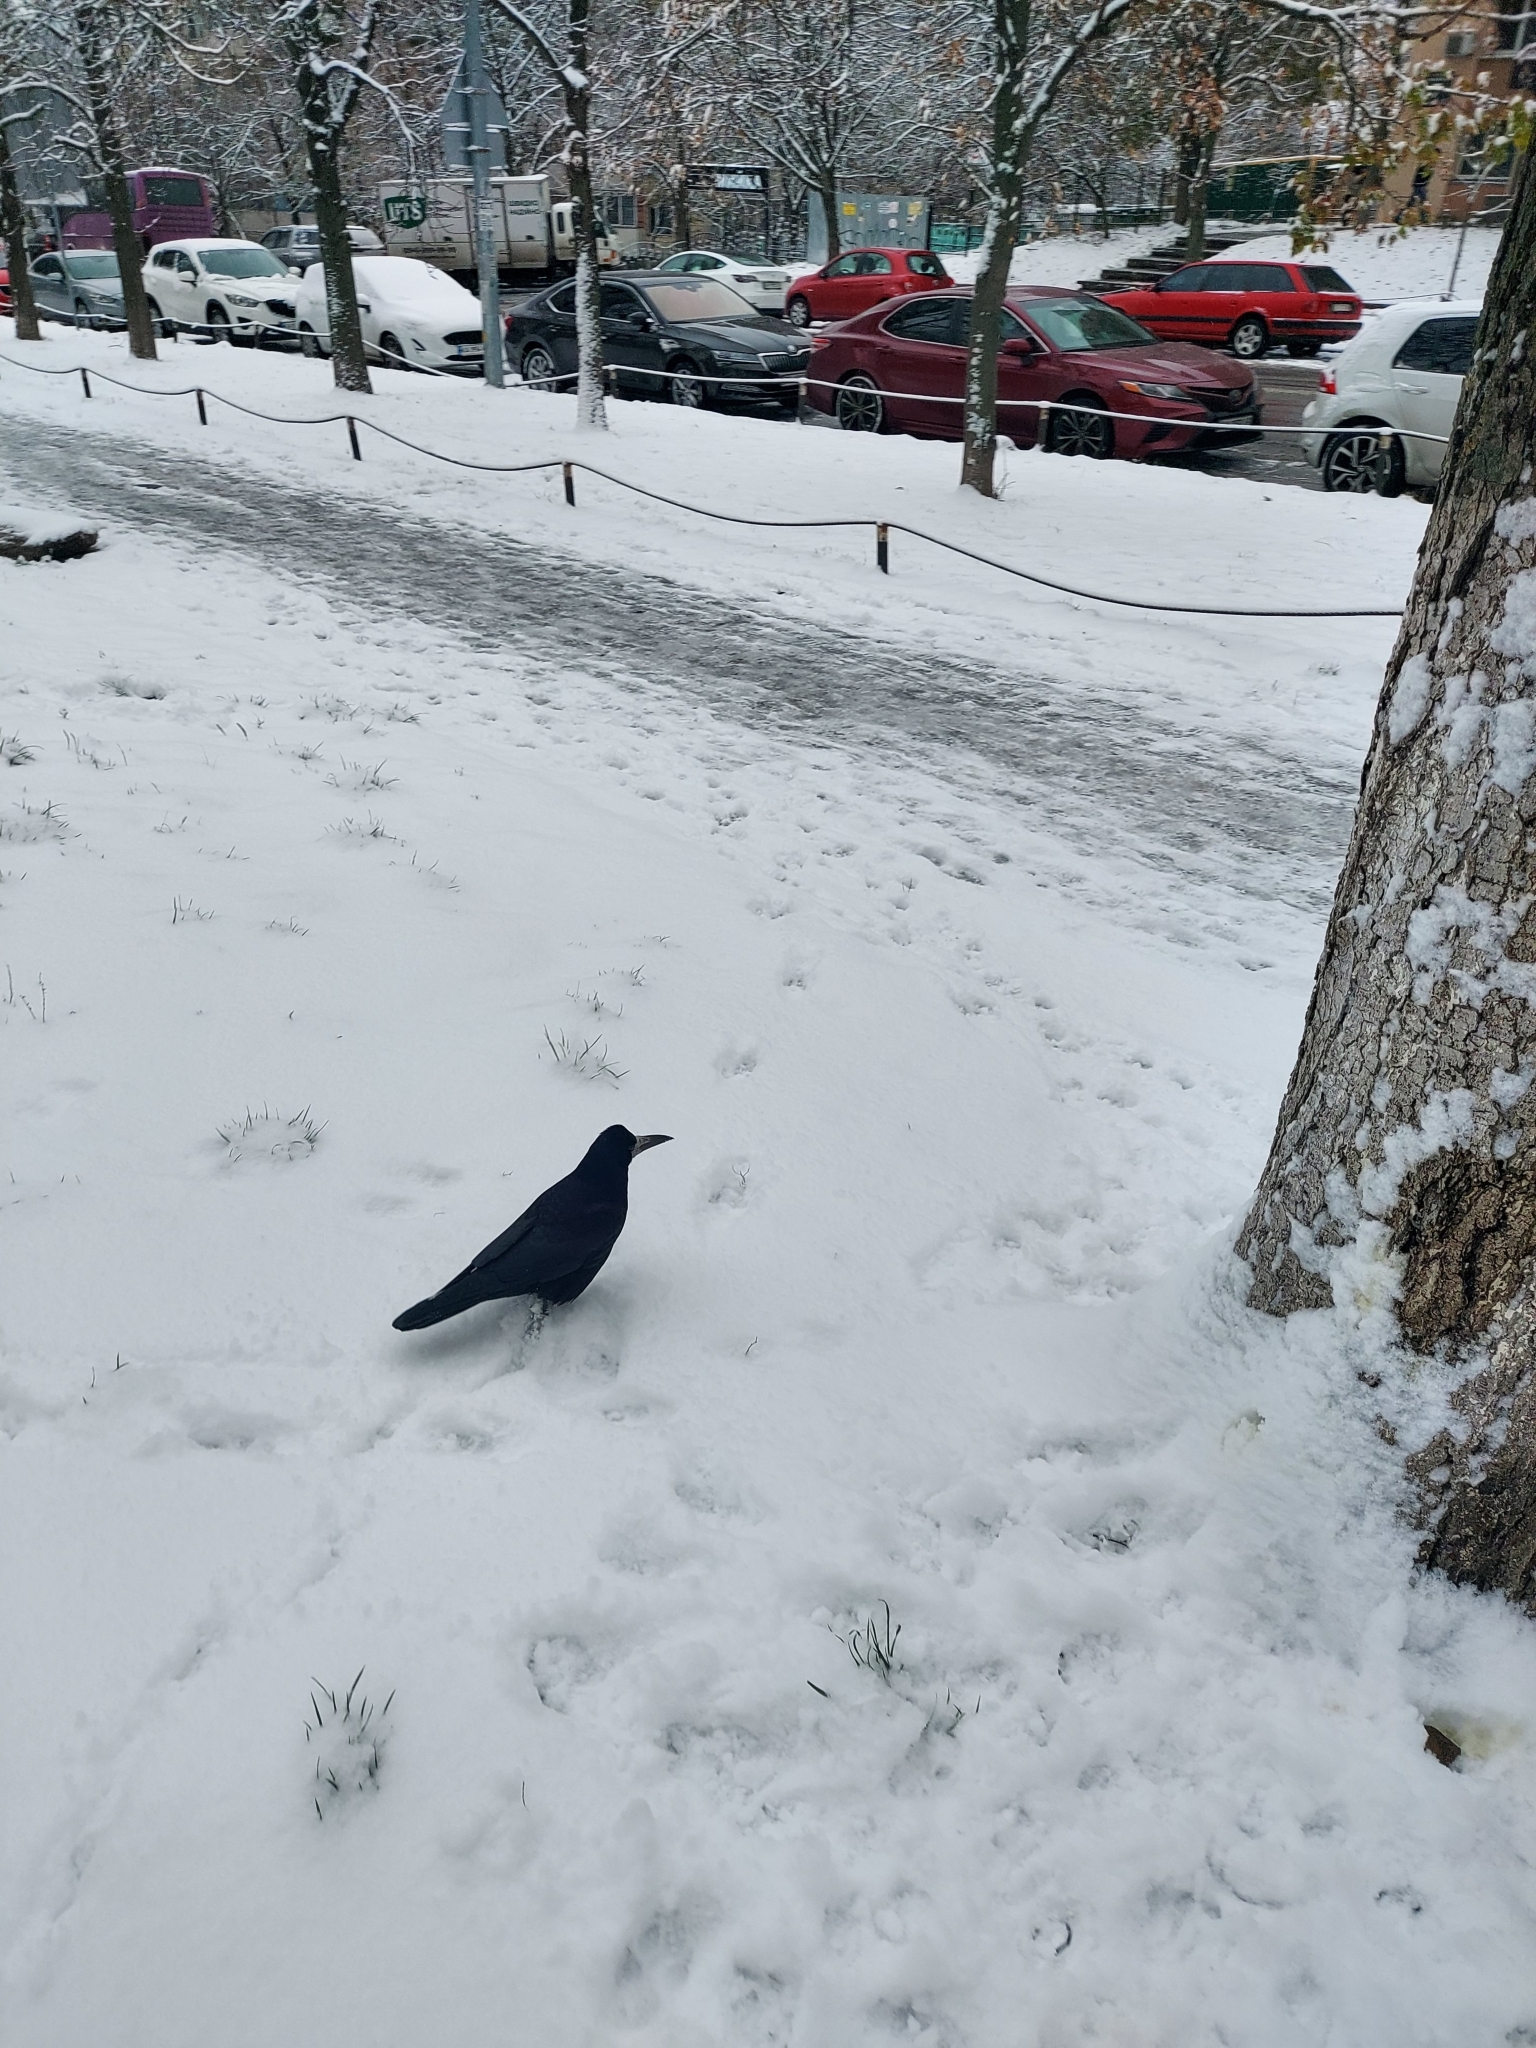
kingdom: Animalia
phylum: Chordata
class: Aves
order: Passeriformes
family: Corvidae
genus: Corvus
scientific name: Corvus frugilegus
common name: Rook
